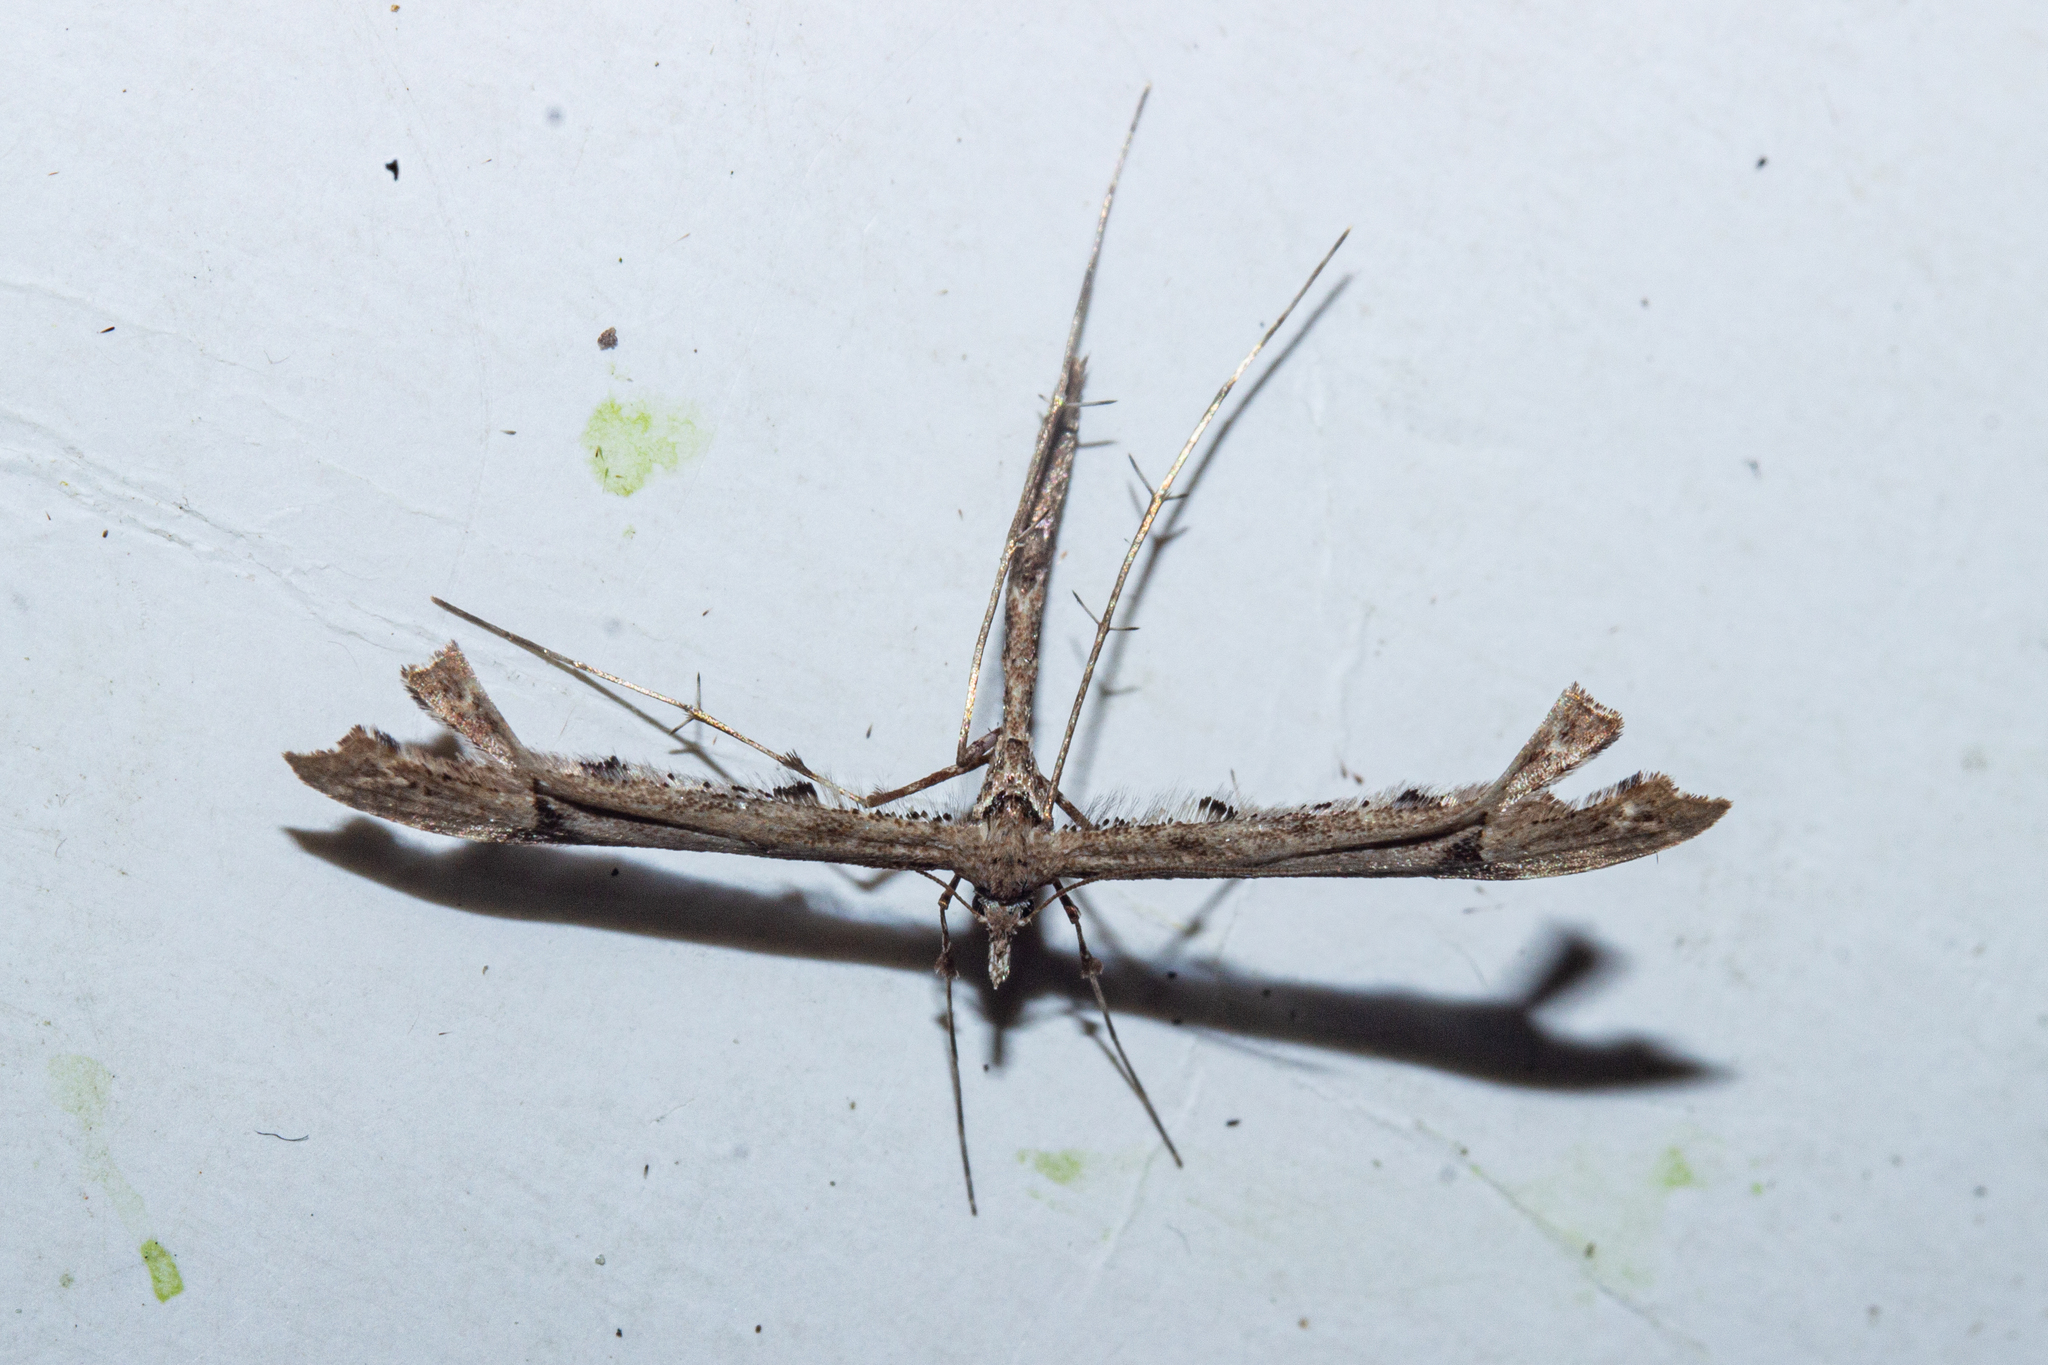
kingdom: Animalia
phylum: Arthropoda
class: Insecta
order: Lepidoptera
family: Pterophoridae
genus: Amblyptilia
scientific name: Amblyptilia repletalis
